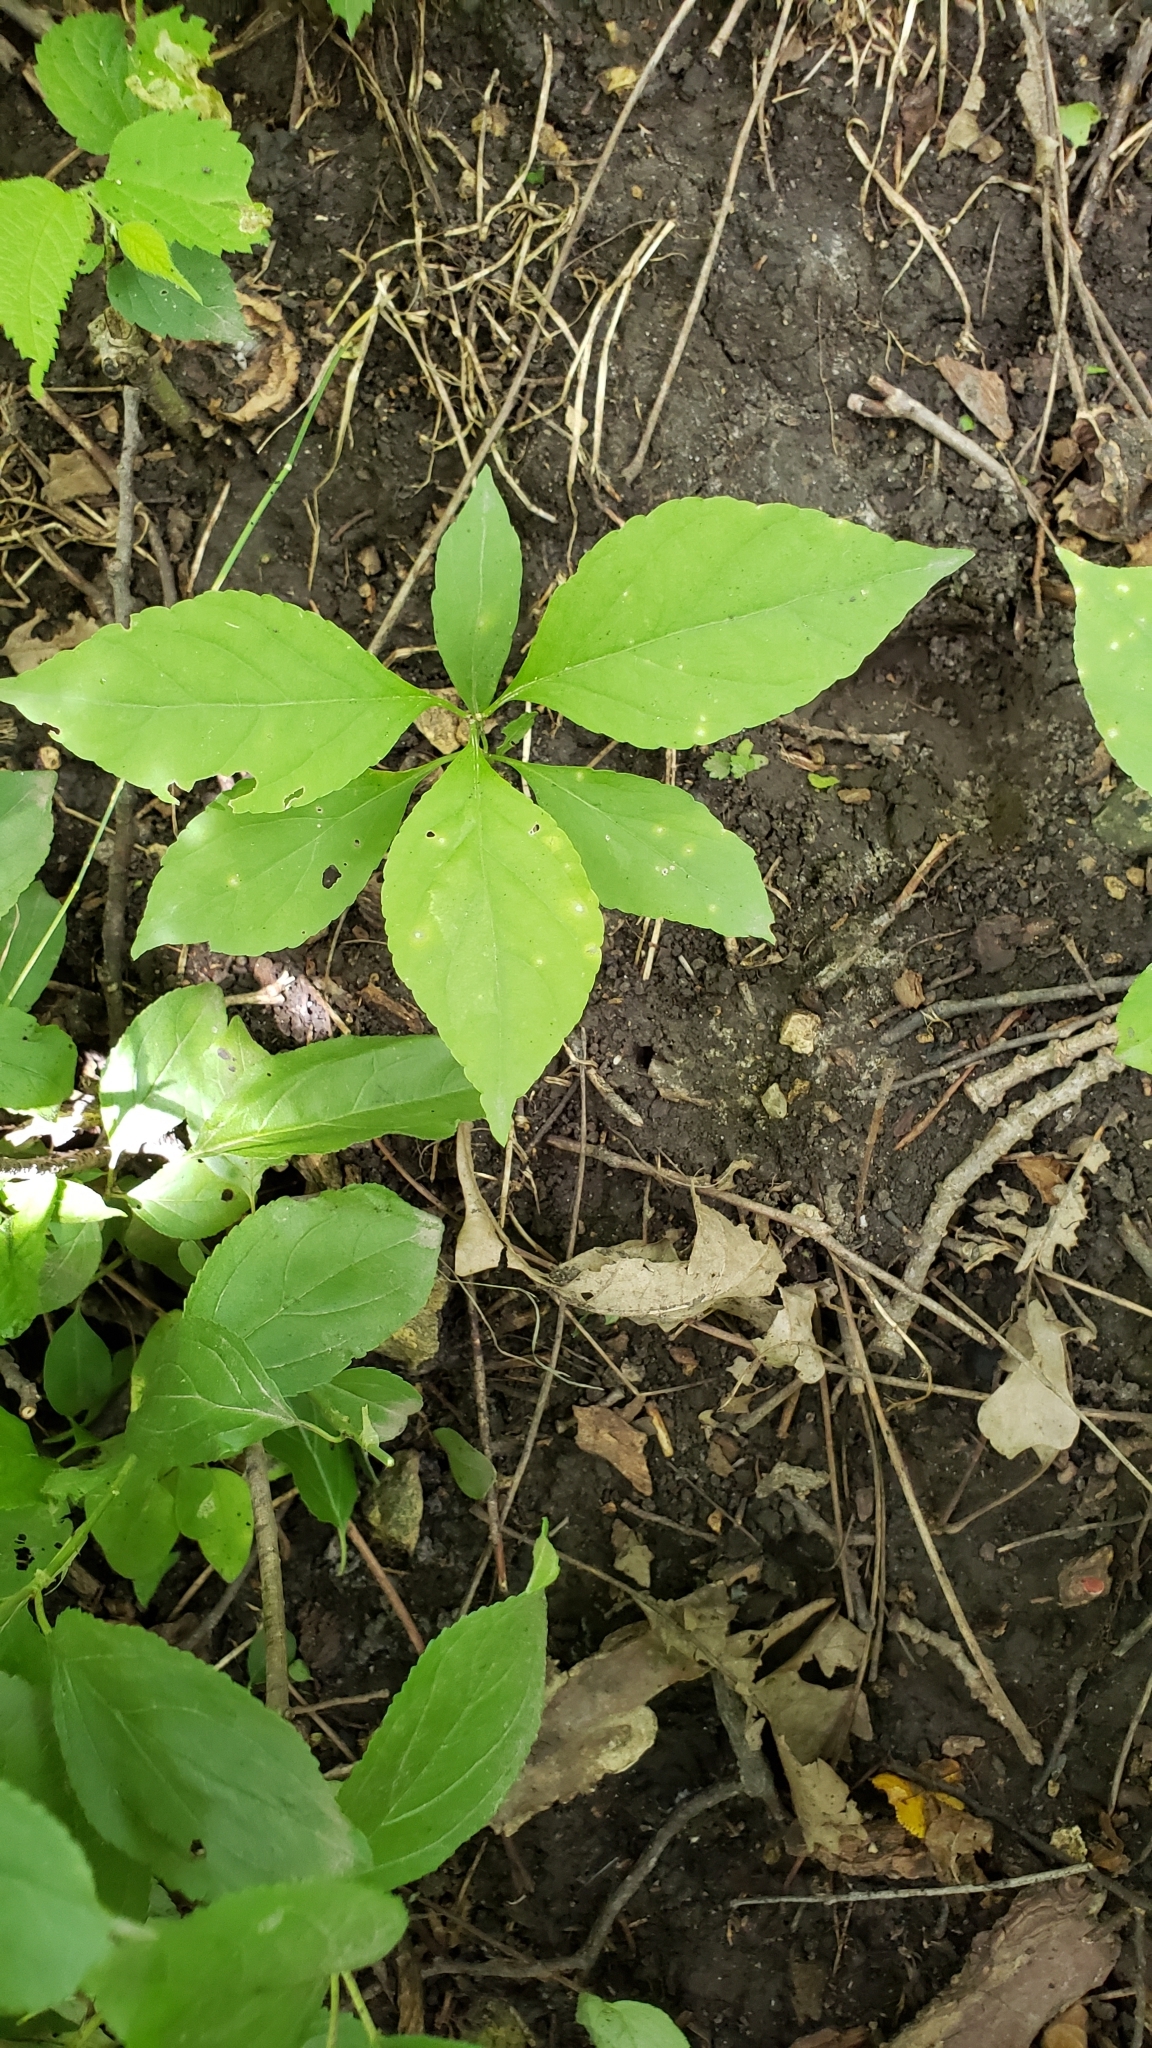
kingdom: Plantae
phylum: Tracheophyta
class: Magnoliopsida
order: Celastrales
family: Celastraceae
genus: Celastrus
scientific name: Celastrus scandens
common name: American bittersweet
